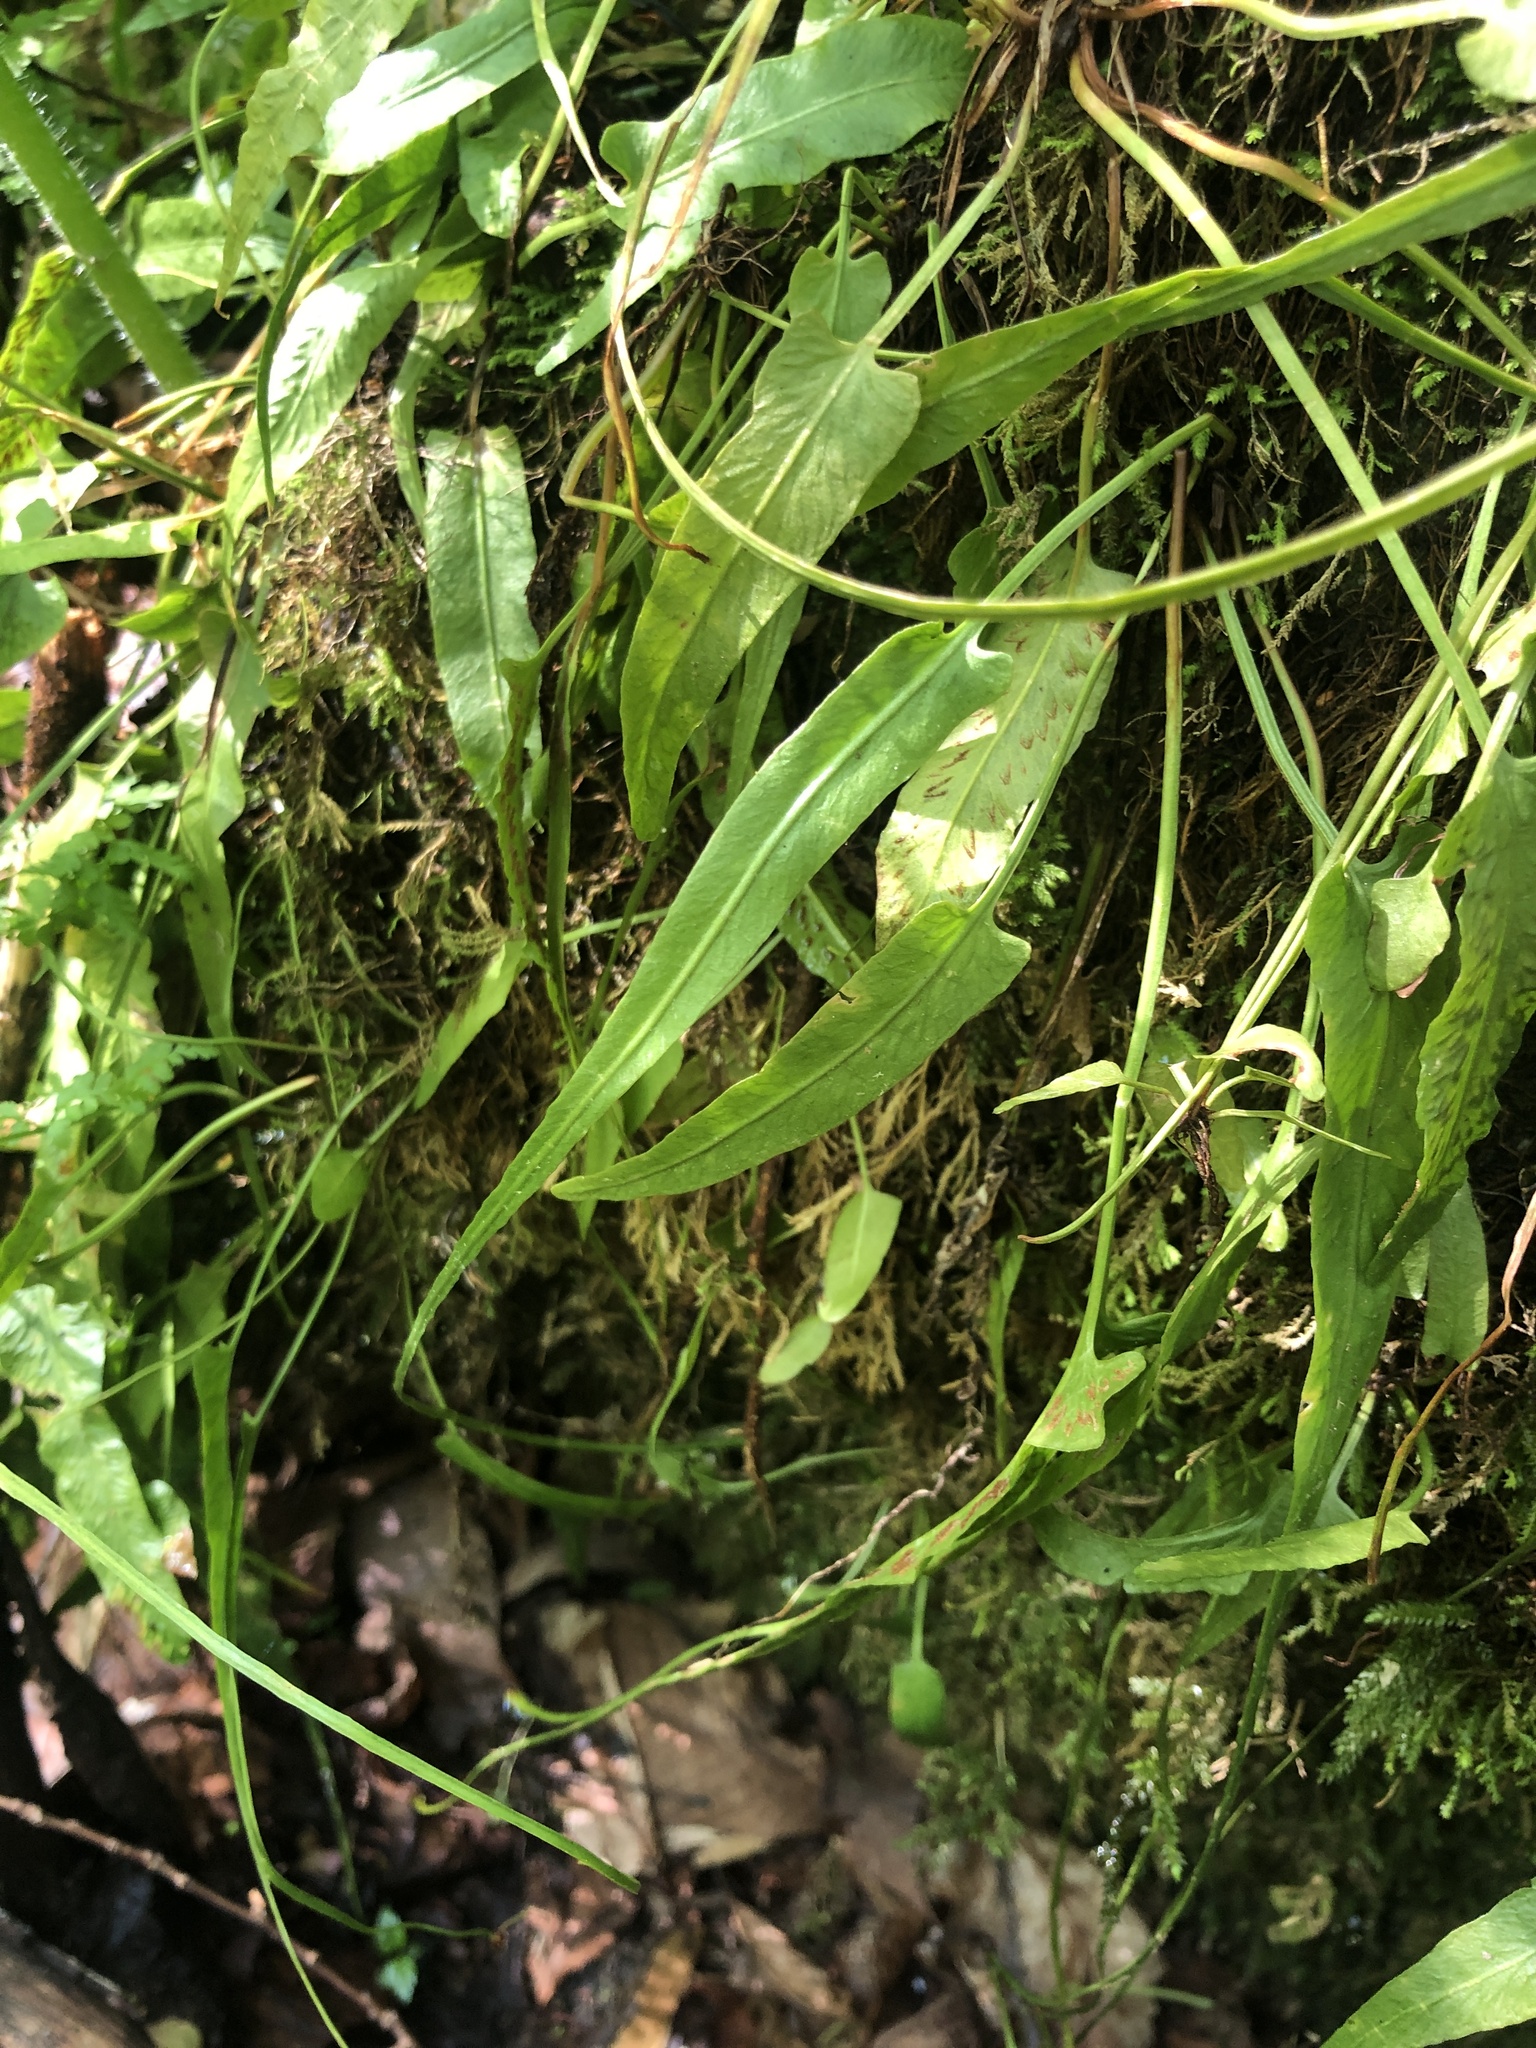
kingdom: Plantae
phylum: Tracheophyta
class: Polypodiopsida
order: Polypodiales
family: Aspleniaceae
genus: Asplenium
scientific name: Asplenium rhizophyllum
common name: Walking fern
